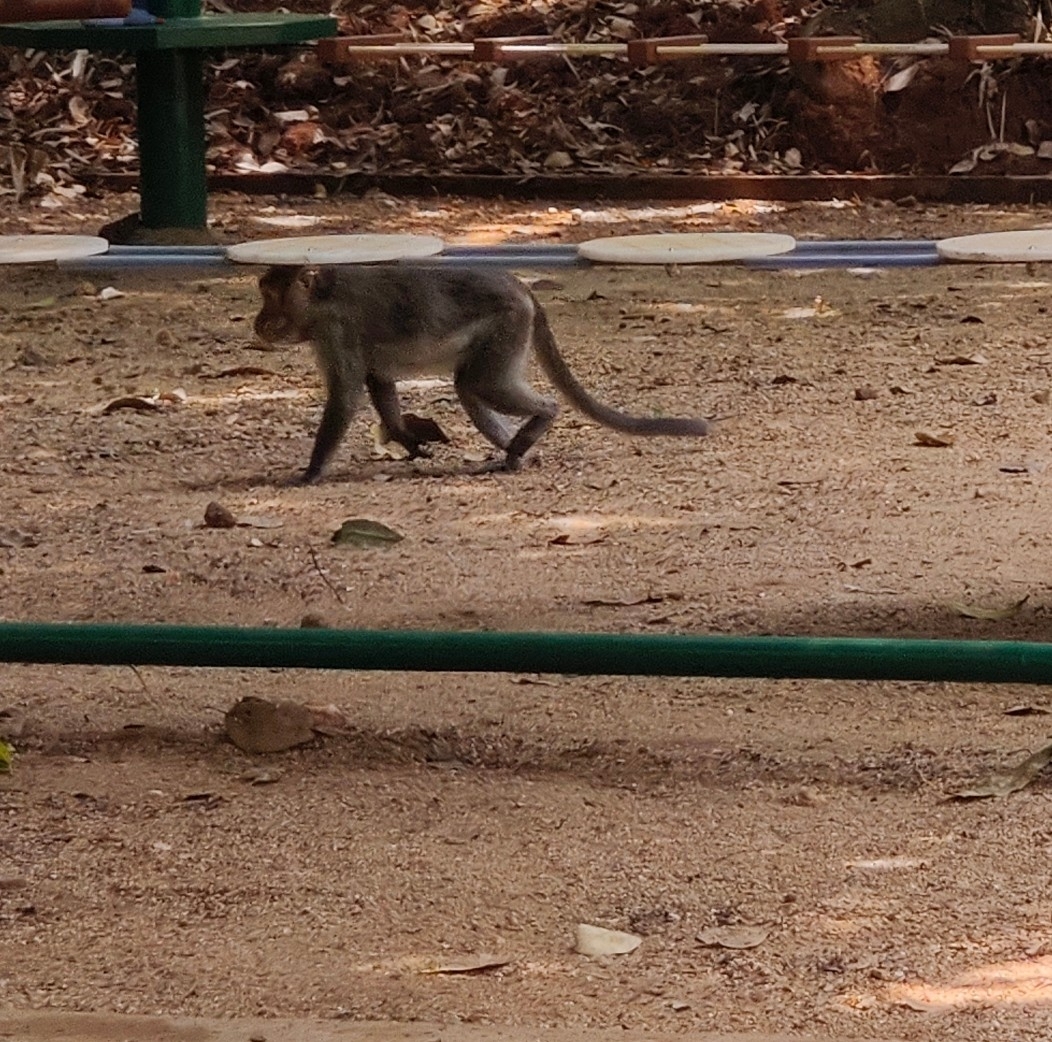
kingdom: Animalia
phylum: Chordata
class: Mammalia
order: Primates
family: Cercopithecidae
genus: Macaca
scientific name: Macaca radiata
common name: Bonnet macaque
